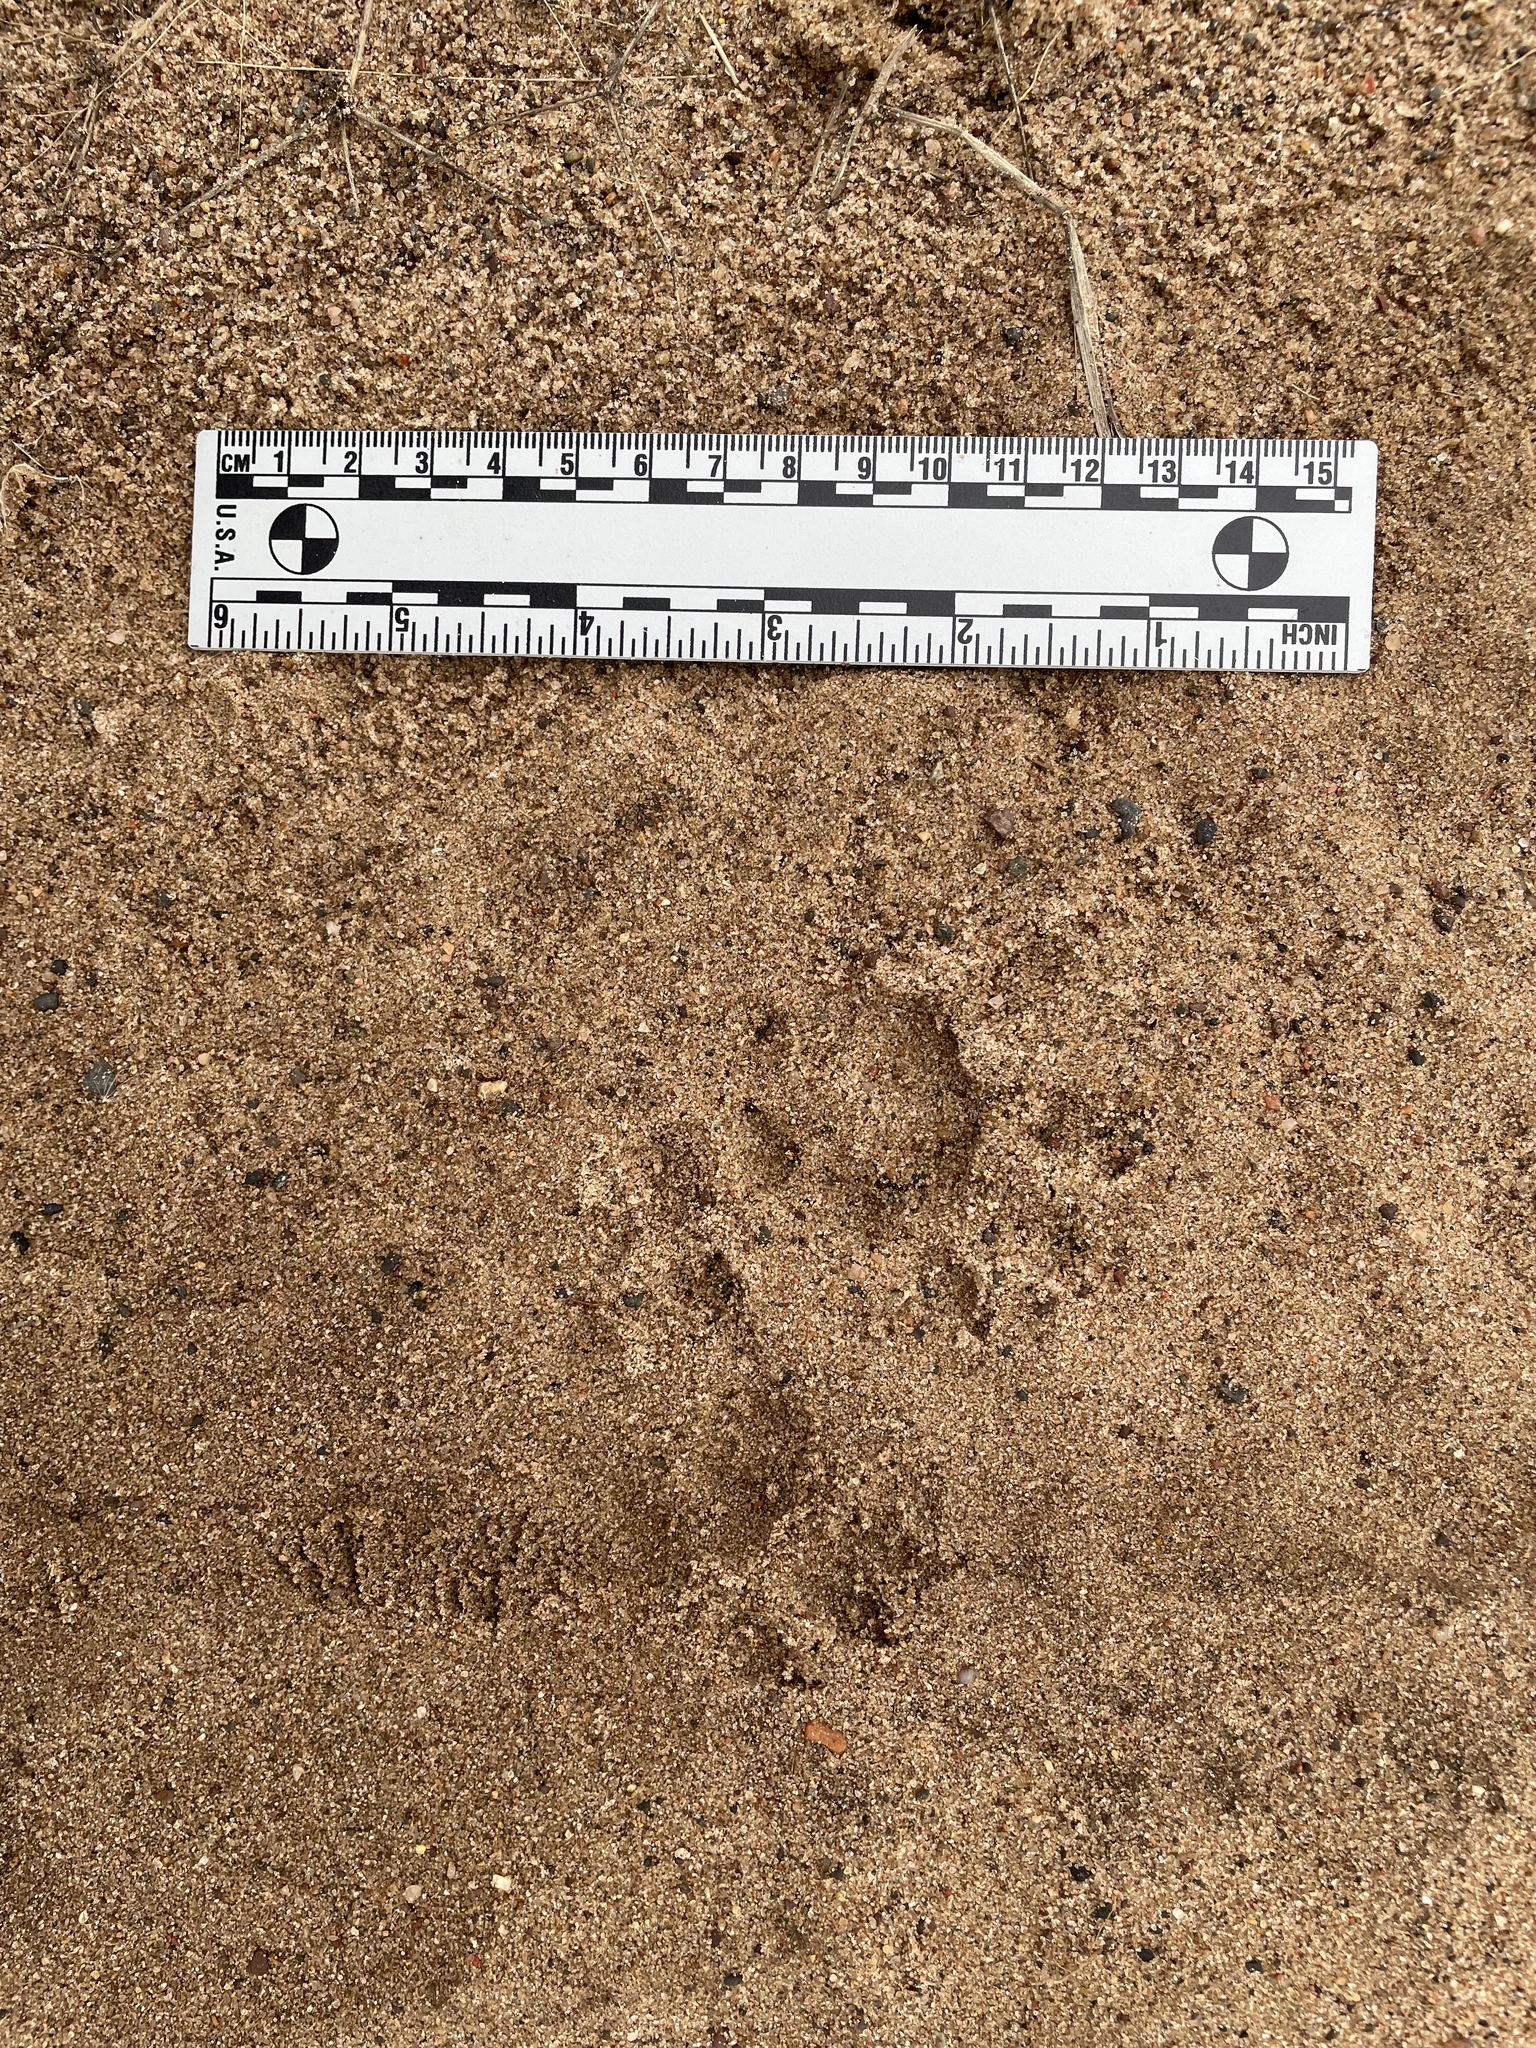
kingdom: Animalia
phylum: Chordata
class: Mammalia
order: Didelphimorphia
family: Didelphidae
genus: Didelphis
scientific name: Didelphis virginiana
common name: Virginia opossum
